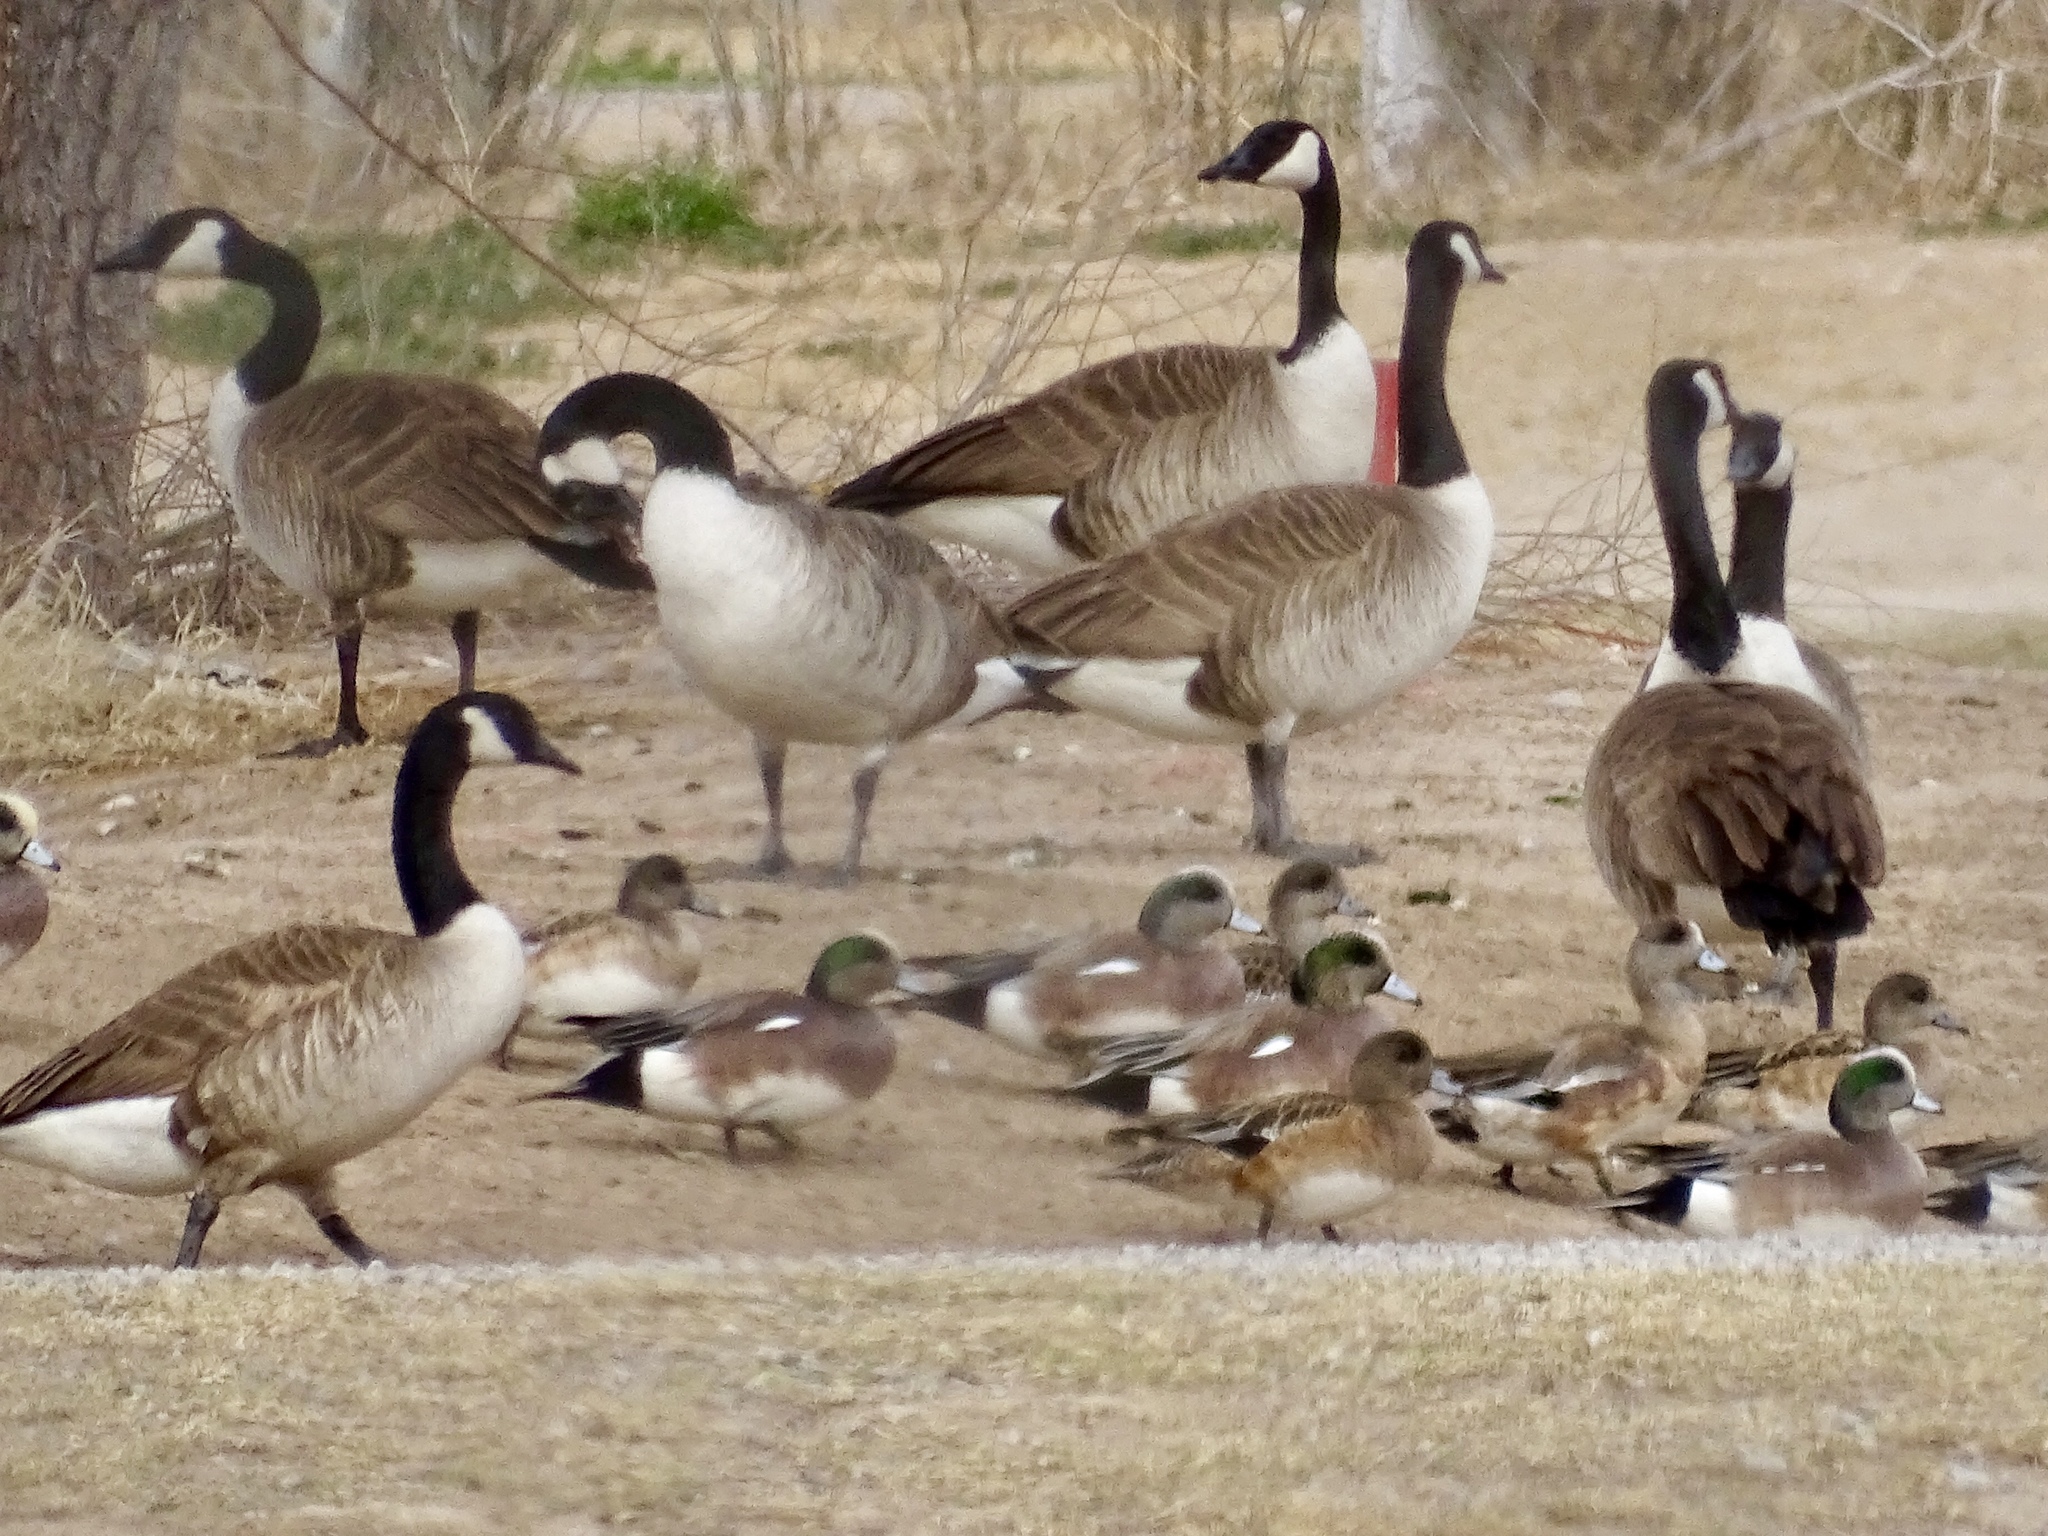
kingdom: Animalia
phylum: Chordata
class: Aves
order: Anseriformes
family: Anatidae
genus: Branta
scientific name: Branta canadensis
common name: Canada goose
